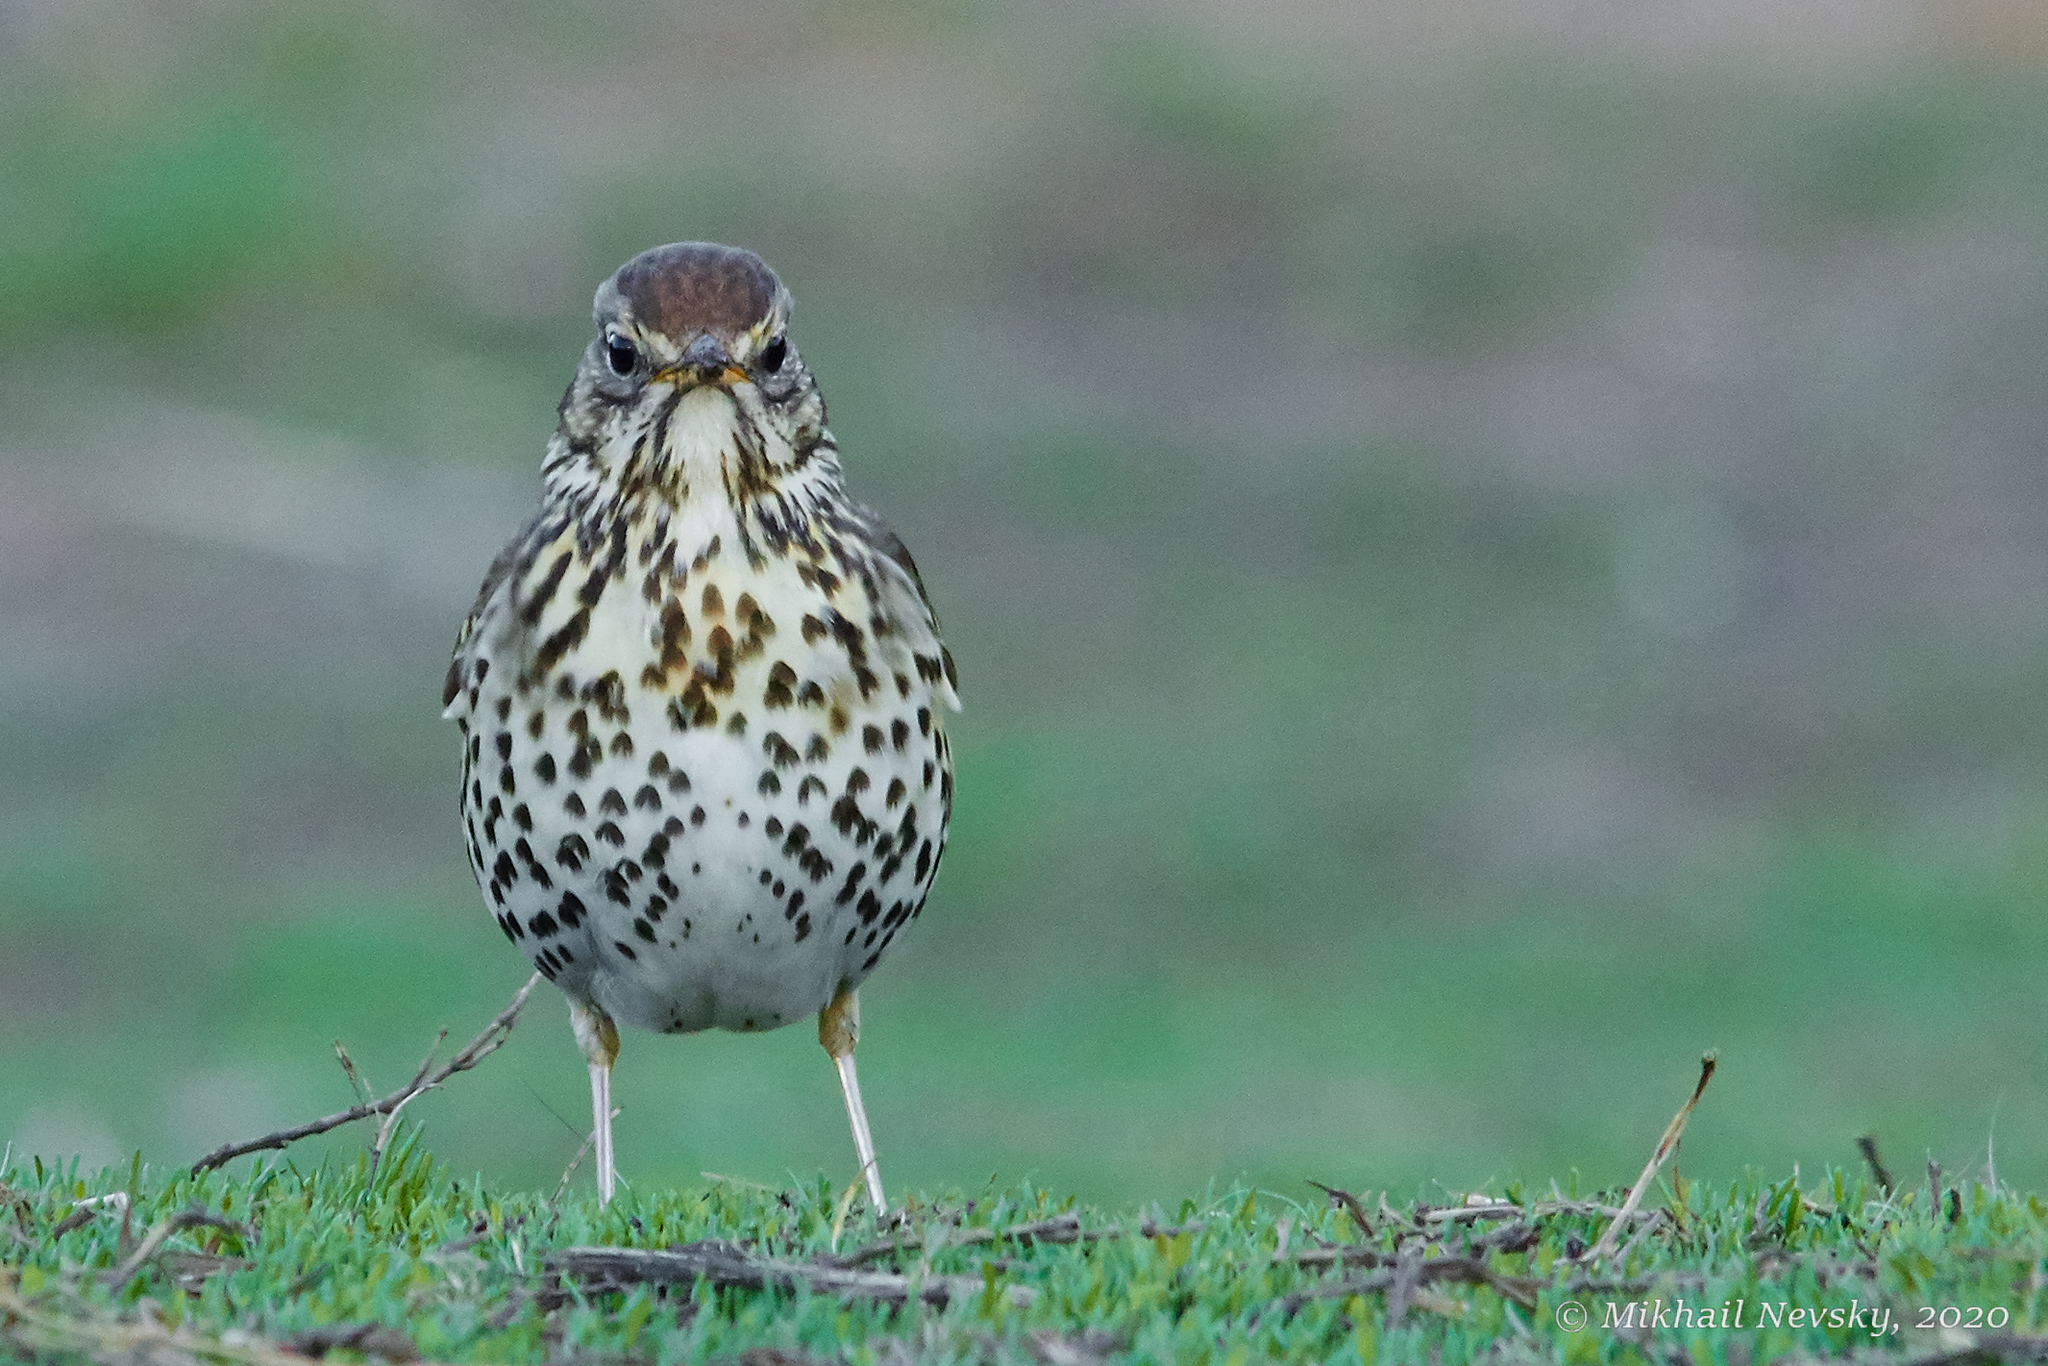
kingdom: Animalia
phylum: Chordata
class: Aves
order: Passeriformes
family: Turdidae
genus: Turdus
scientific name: Turdus philomelos
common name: Song thrush
